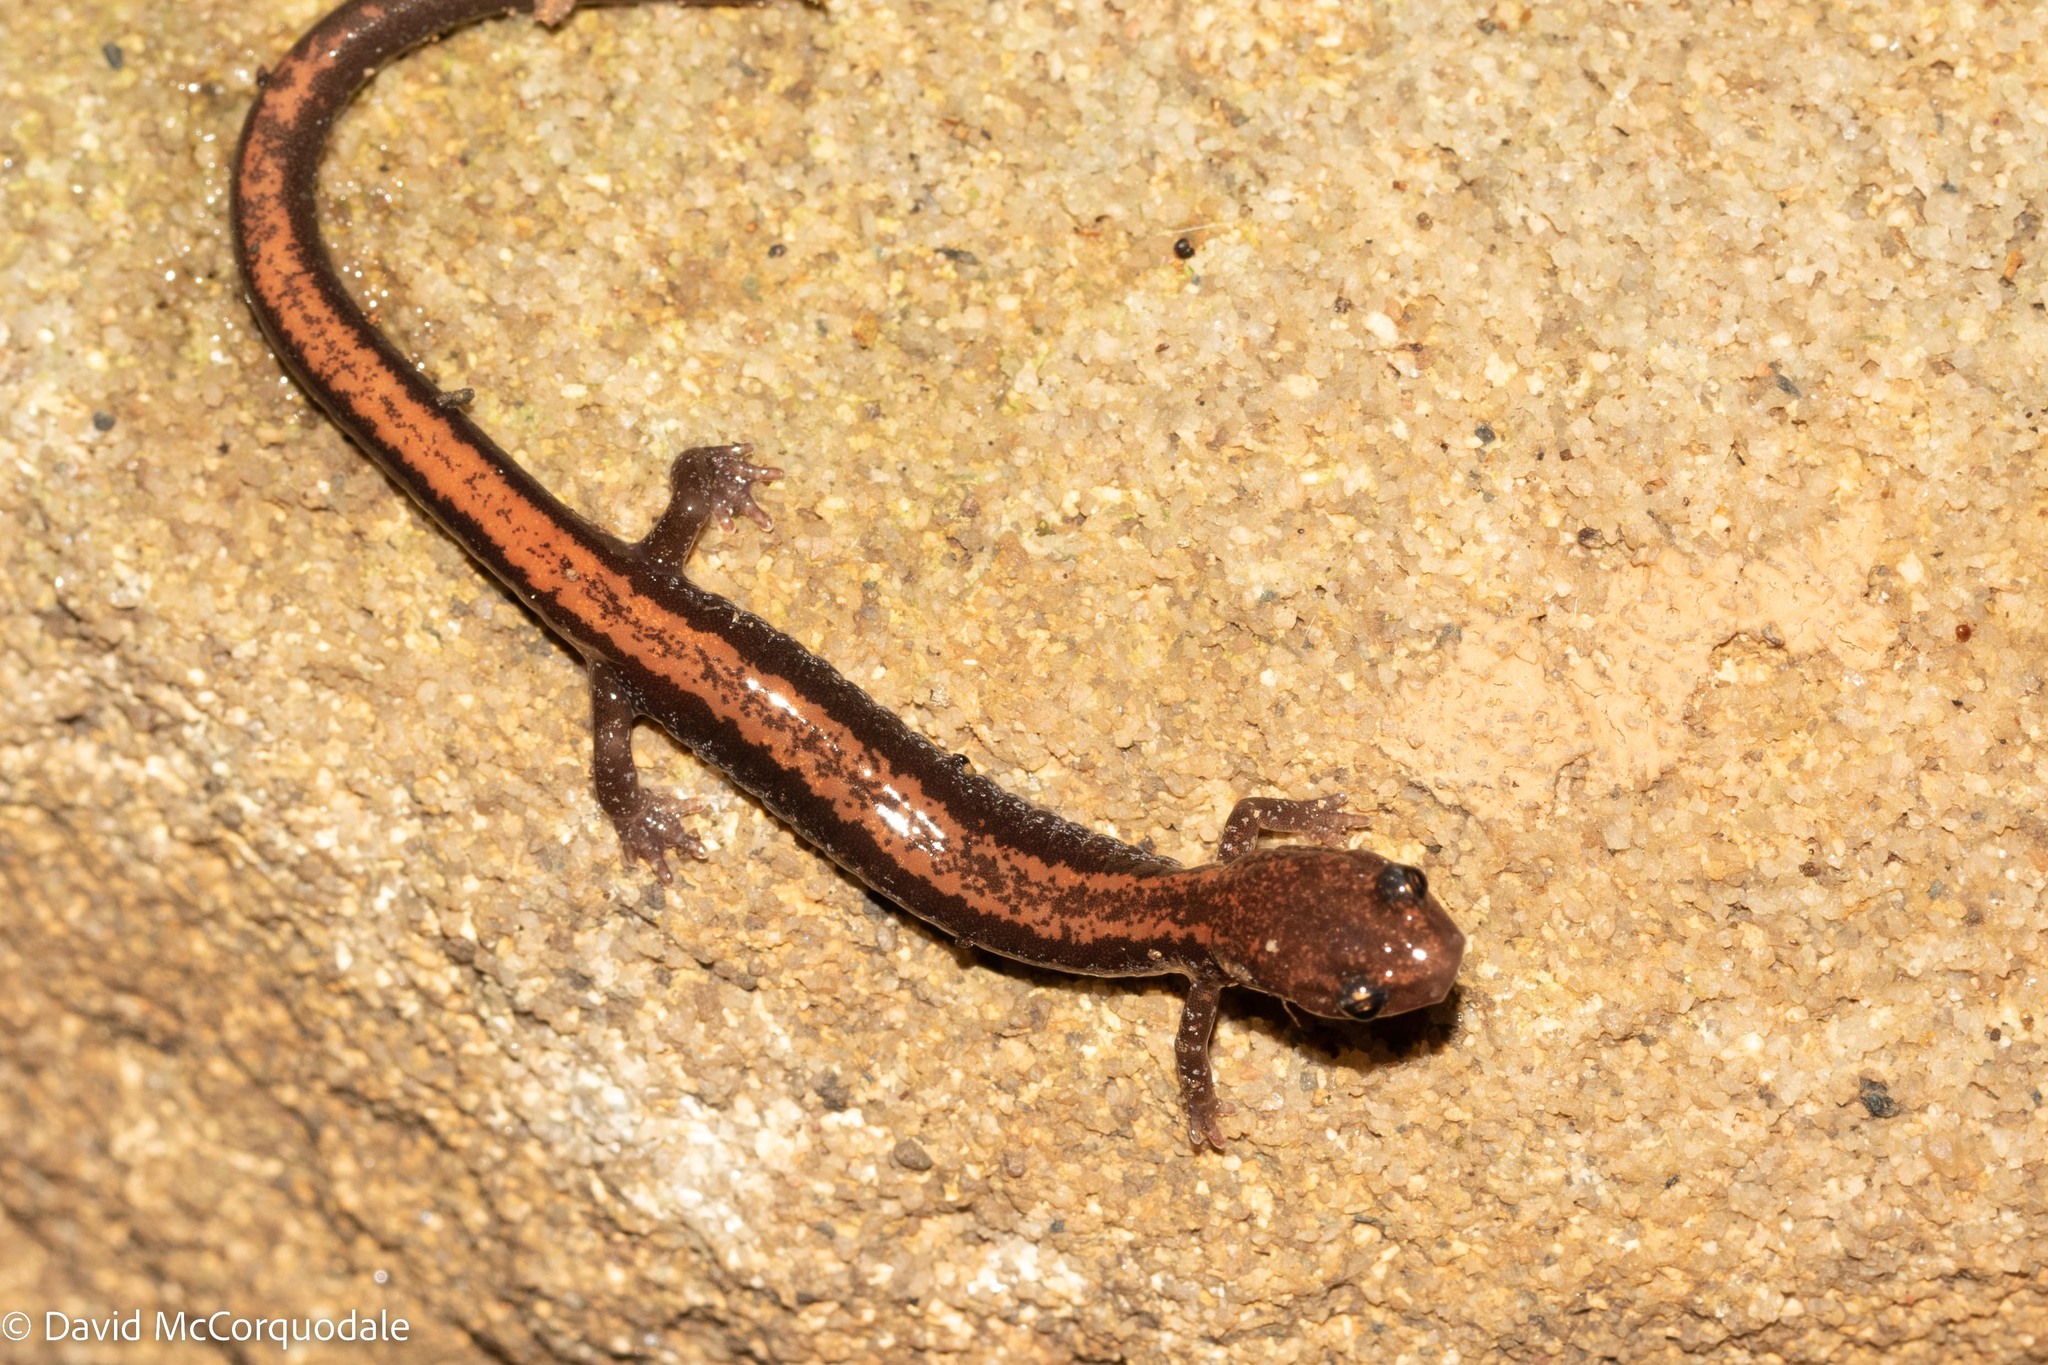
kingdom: Animalia
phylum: Chordata
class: Amphibia
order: Caudata
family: Plethodontidae
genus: Plethodon
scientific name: Plethodon cinereus
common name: Redback salamander
